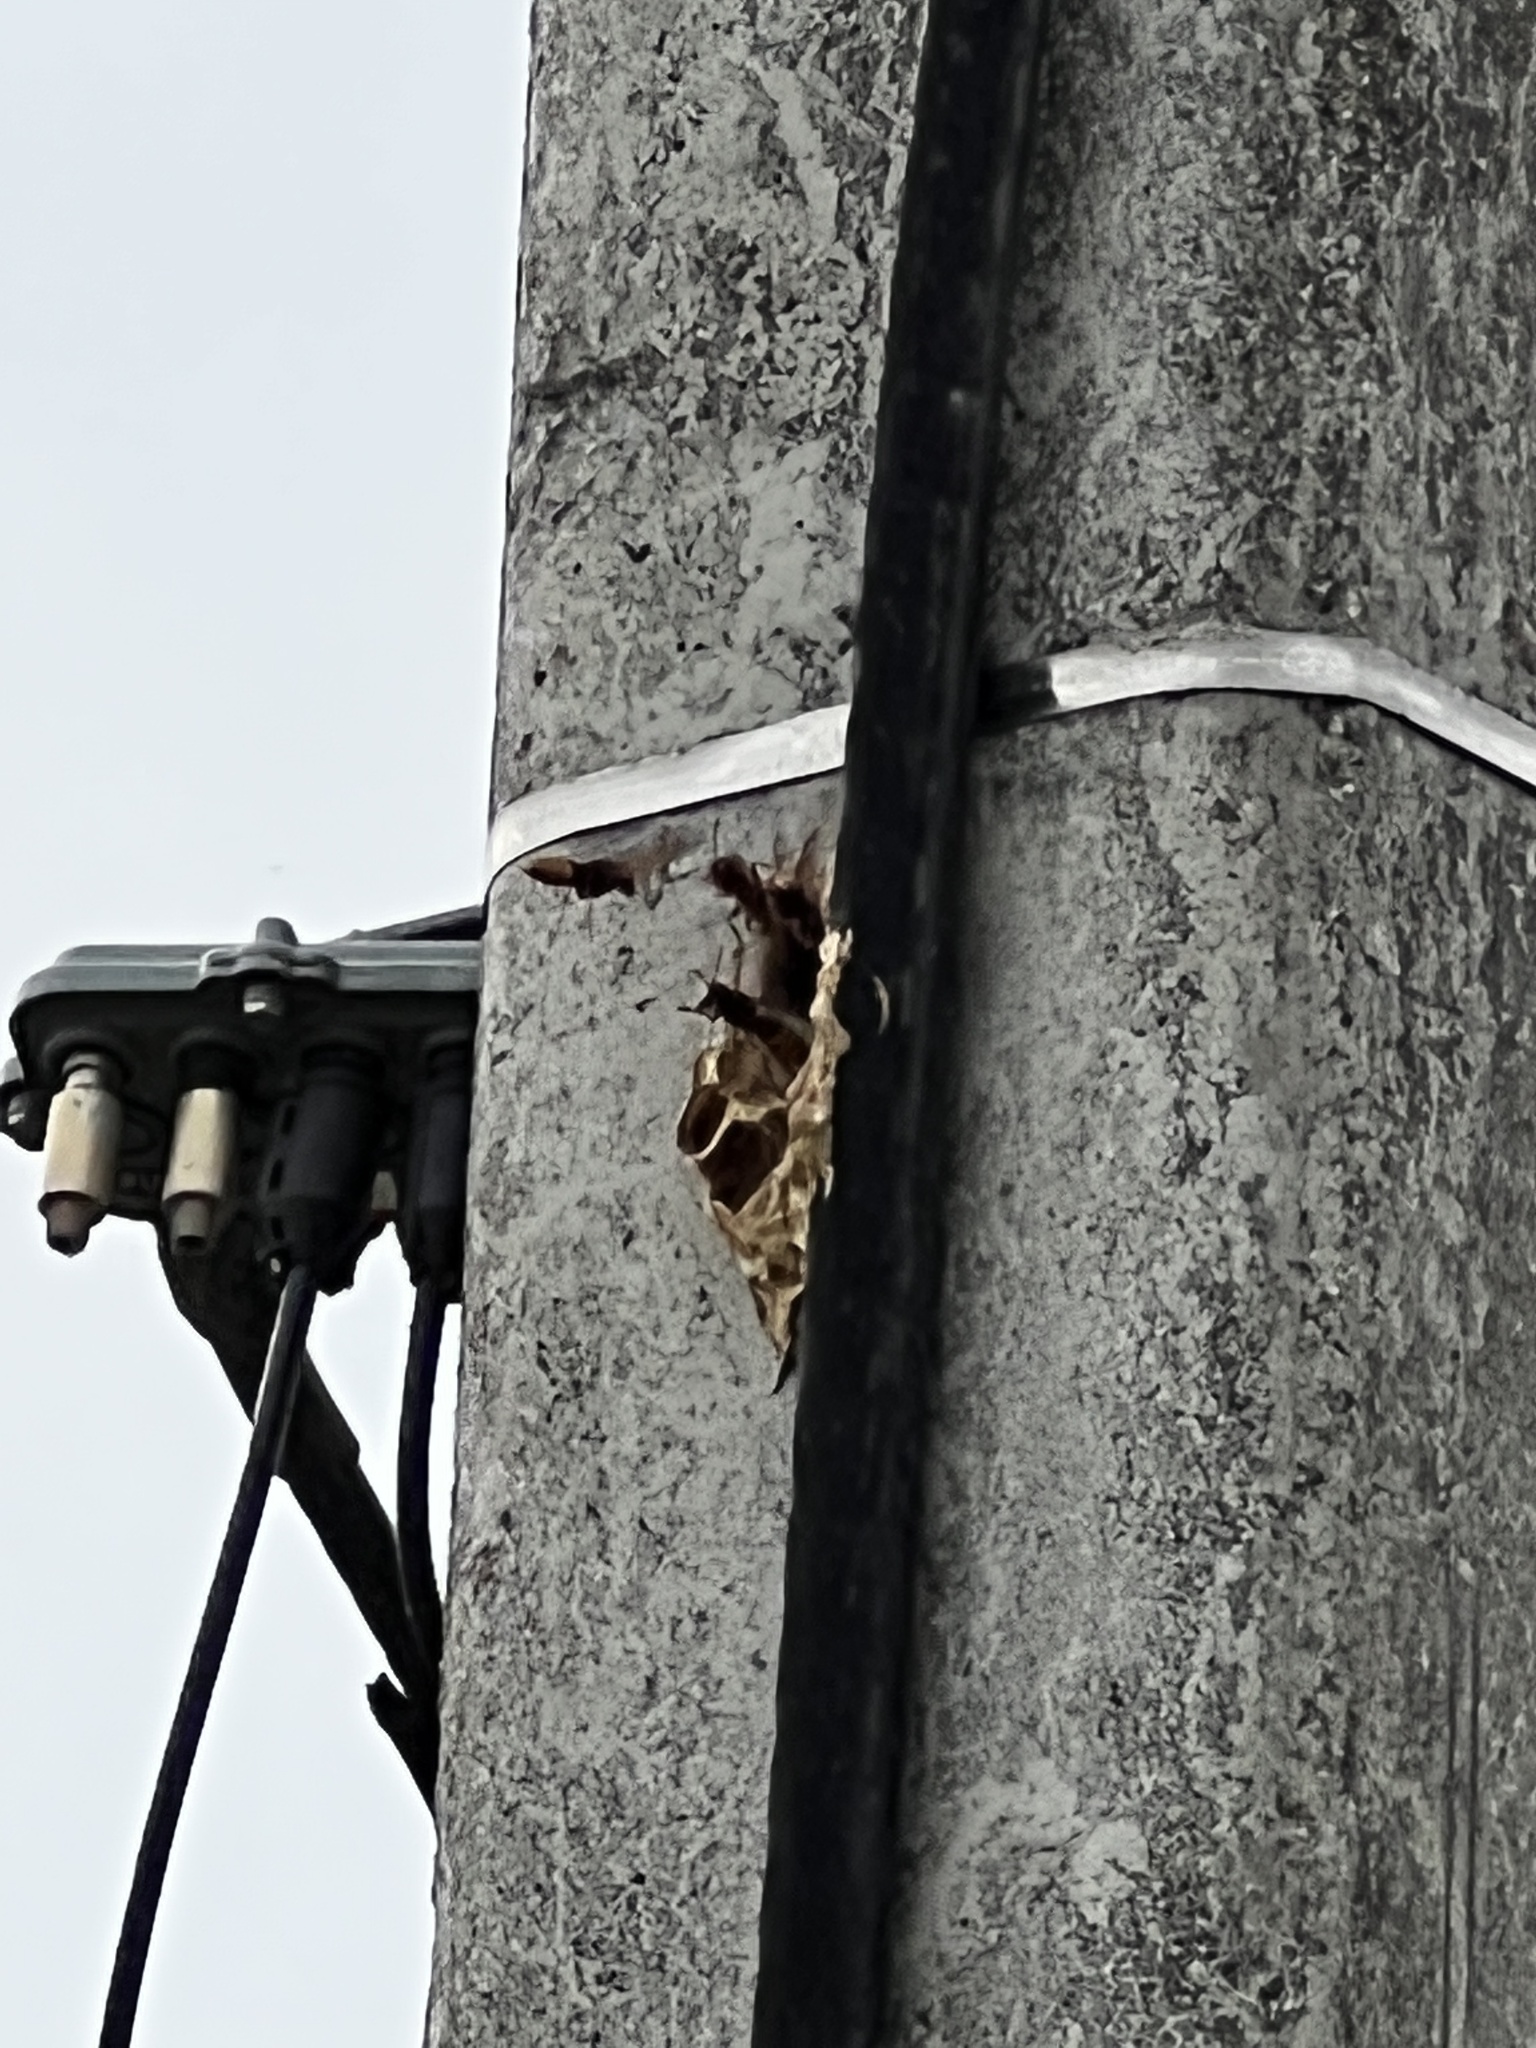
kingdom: Animalia
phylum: Arthropoda
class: Insecta
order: Hymenoptera
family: Vespidae
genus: Vespa
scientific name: Vespa crabro
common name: Hornet
